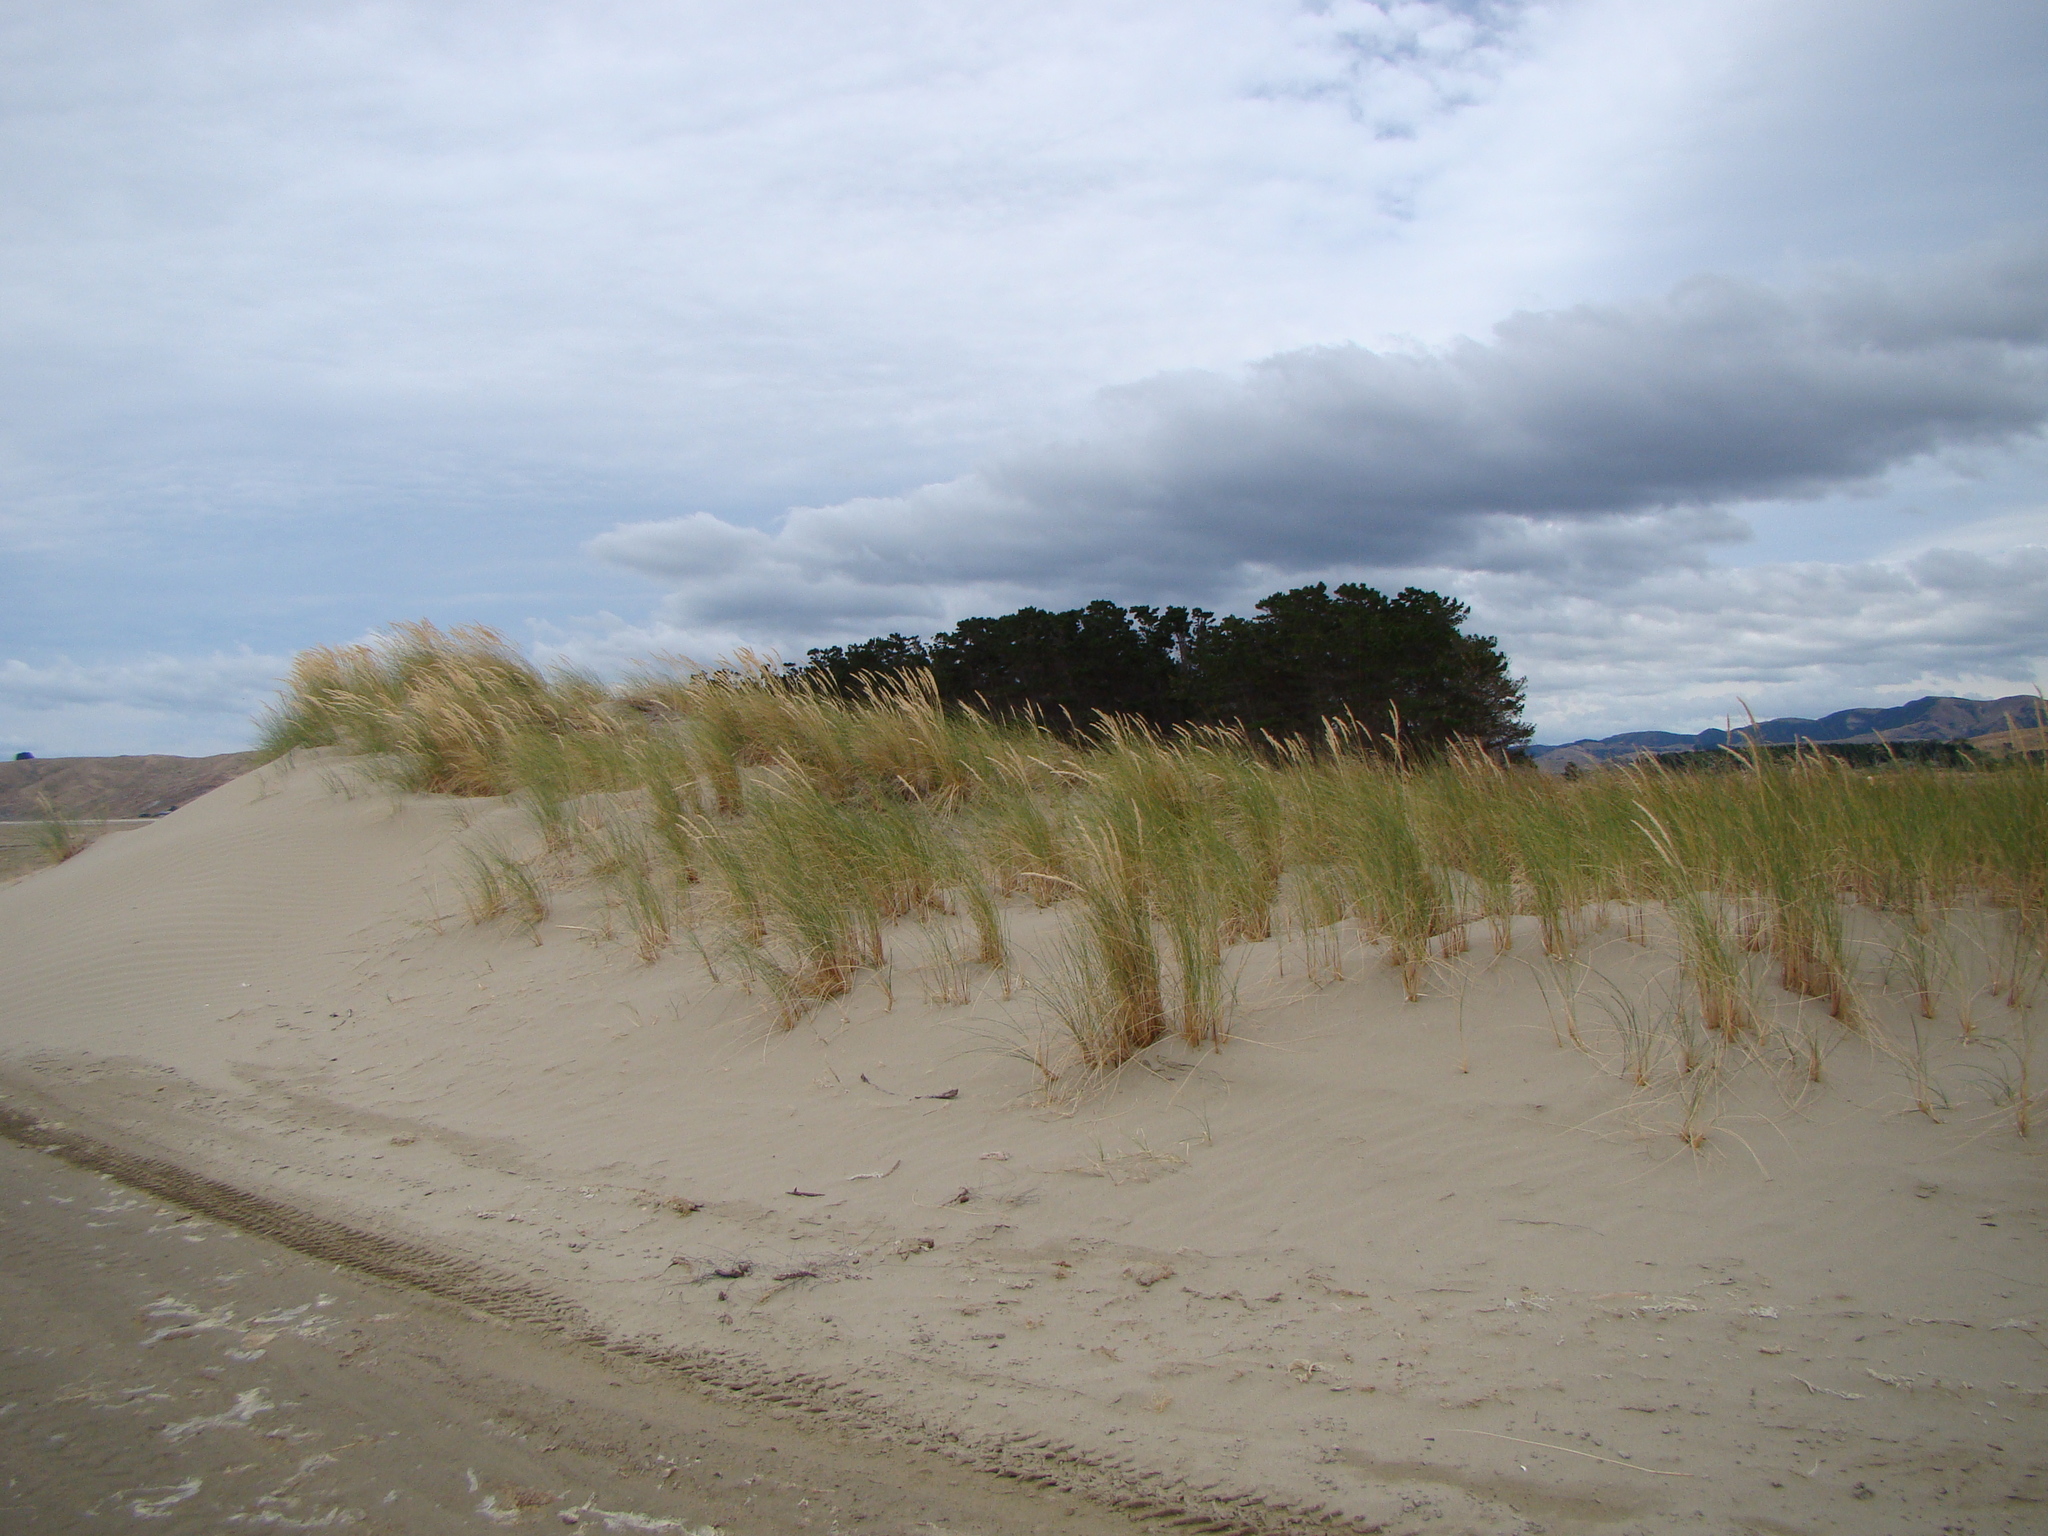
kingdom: Plantae
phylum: Tracheophyta
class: Liliopsida
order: Poales
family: Poaceae
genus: Calamagrostis
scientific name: Calamagrostis arenaria
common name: European beachgrass
